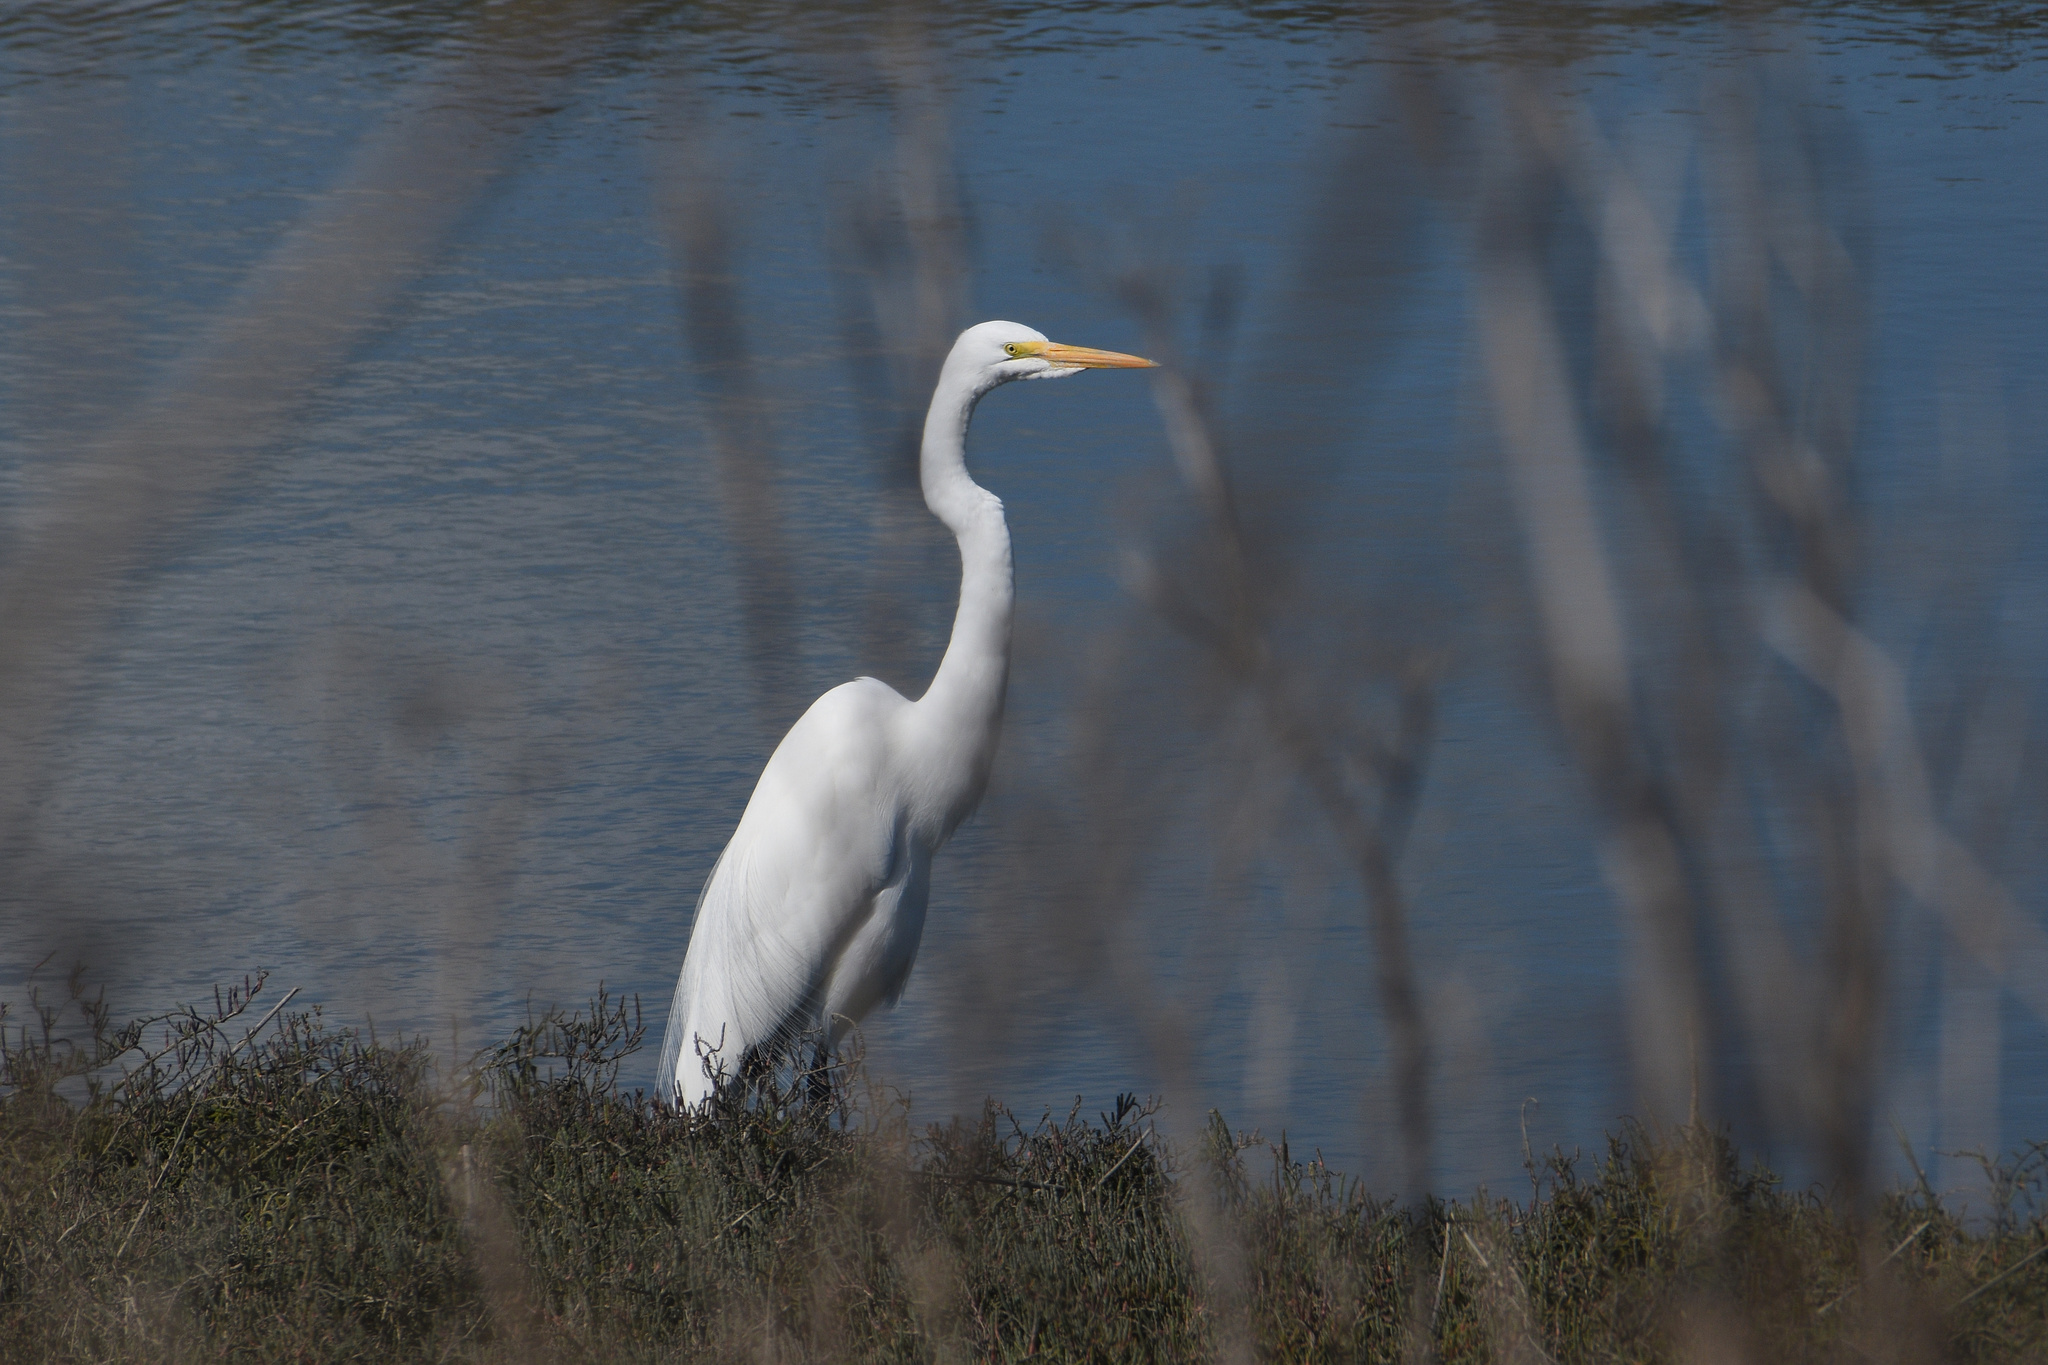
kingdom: Animalia
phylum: Chordata
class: Aves
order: Pelecaniformes
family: Ardeidae
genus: Ardea
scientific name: Ardea alba
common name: Great egret
